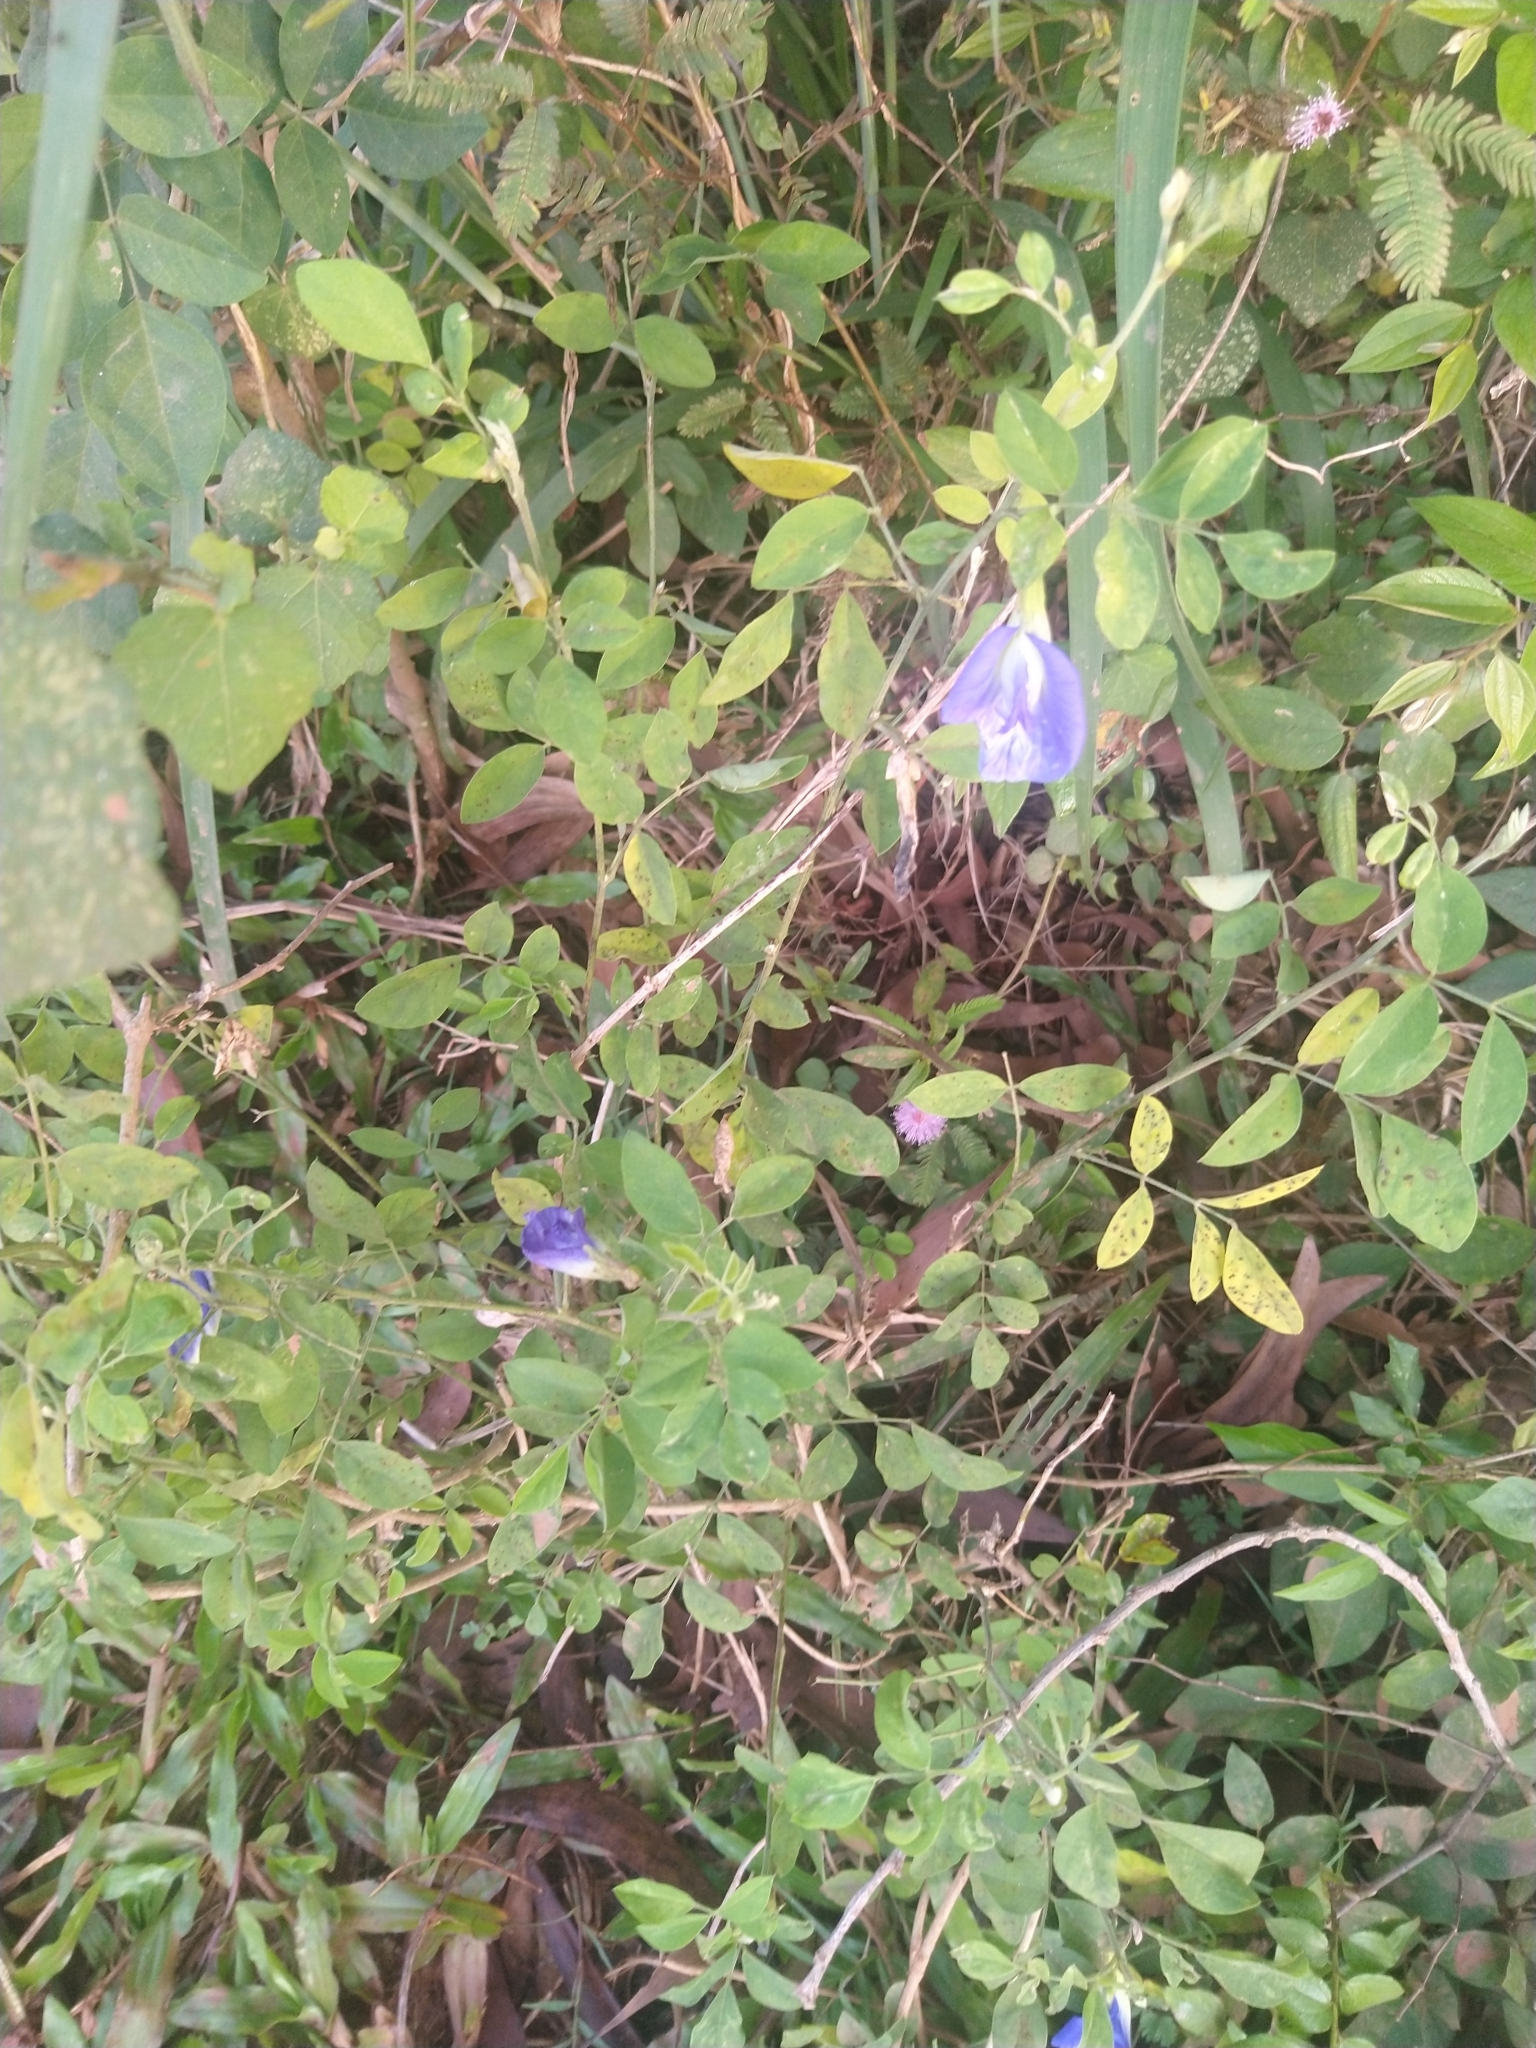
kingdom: Plantae
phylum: Tracheophyta
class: Magnoliopsida
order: Fabales
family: Fabaceae
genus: Clitoria
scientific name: Clitoria ternatea
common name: Asian pigeonwings
